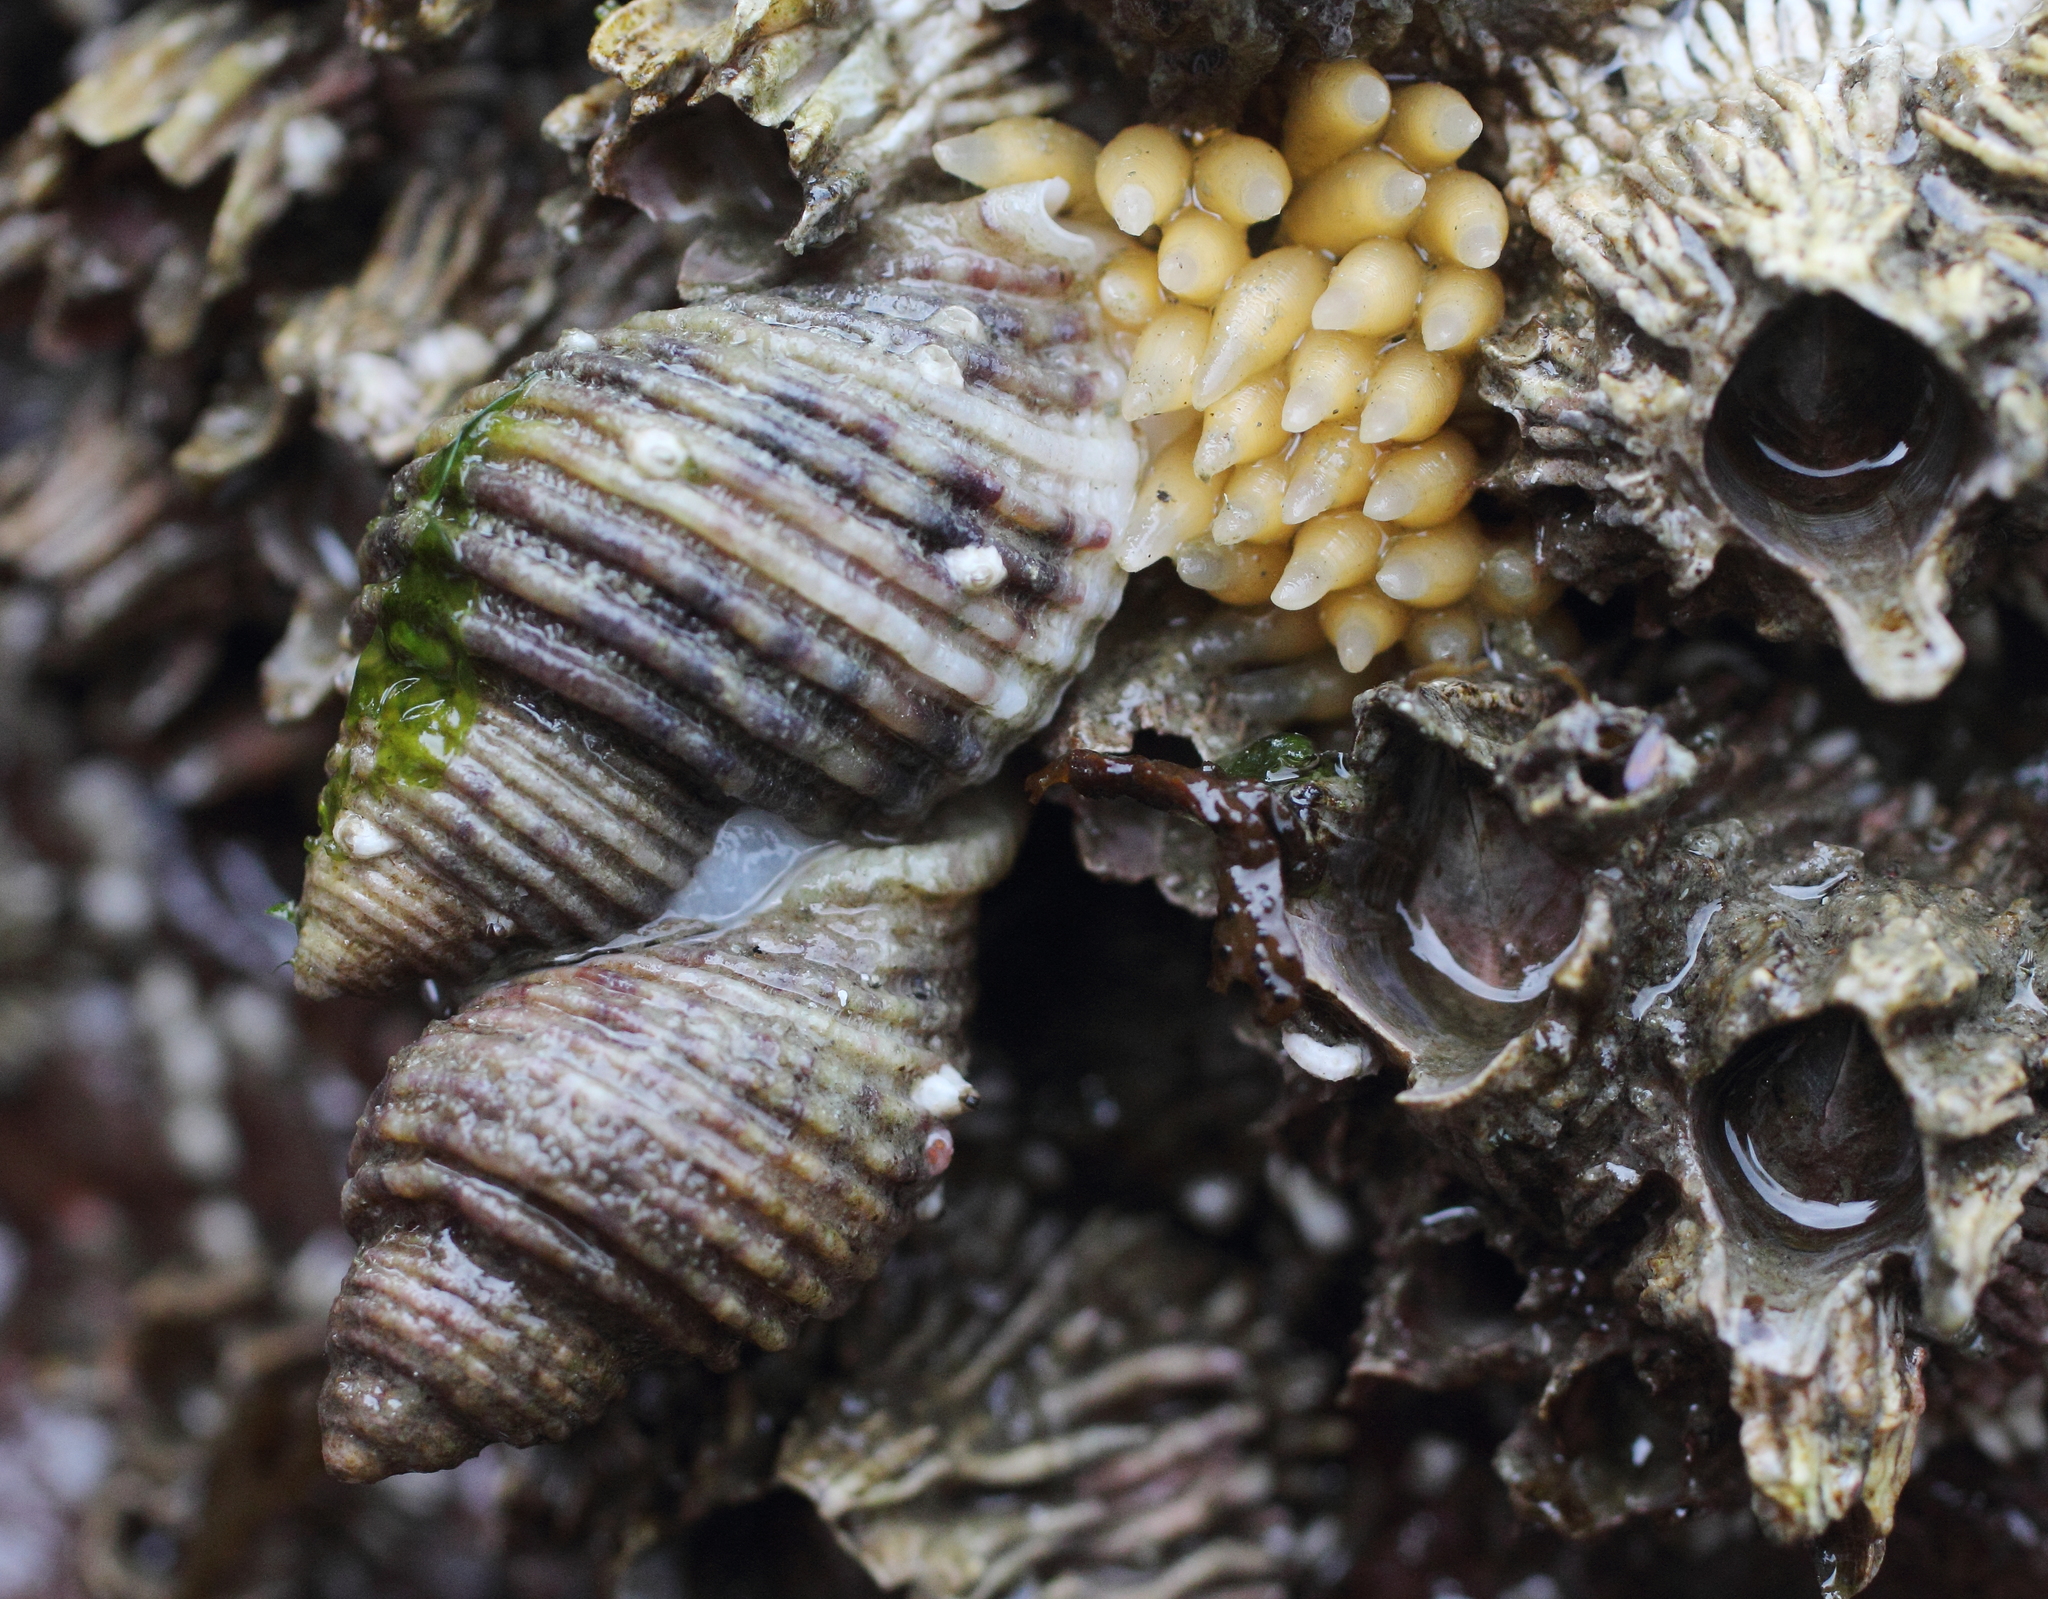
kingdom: Animalia
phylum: Mollusca
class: Gastropoda
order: Neogastropoda
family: Muricidae
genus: Nucella
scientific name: Nucella canaliculata
